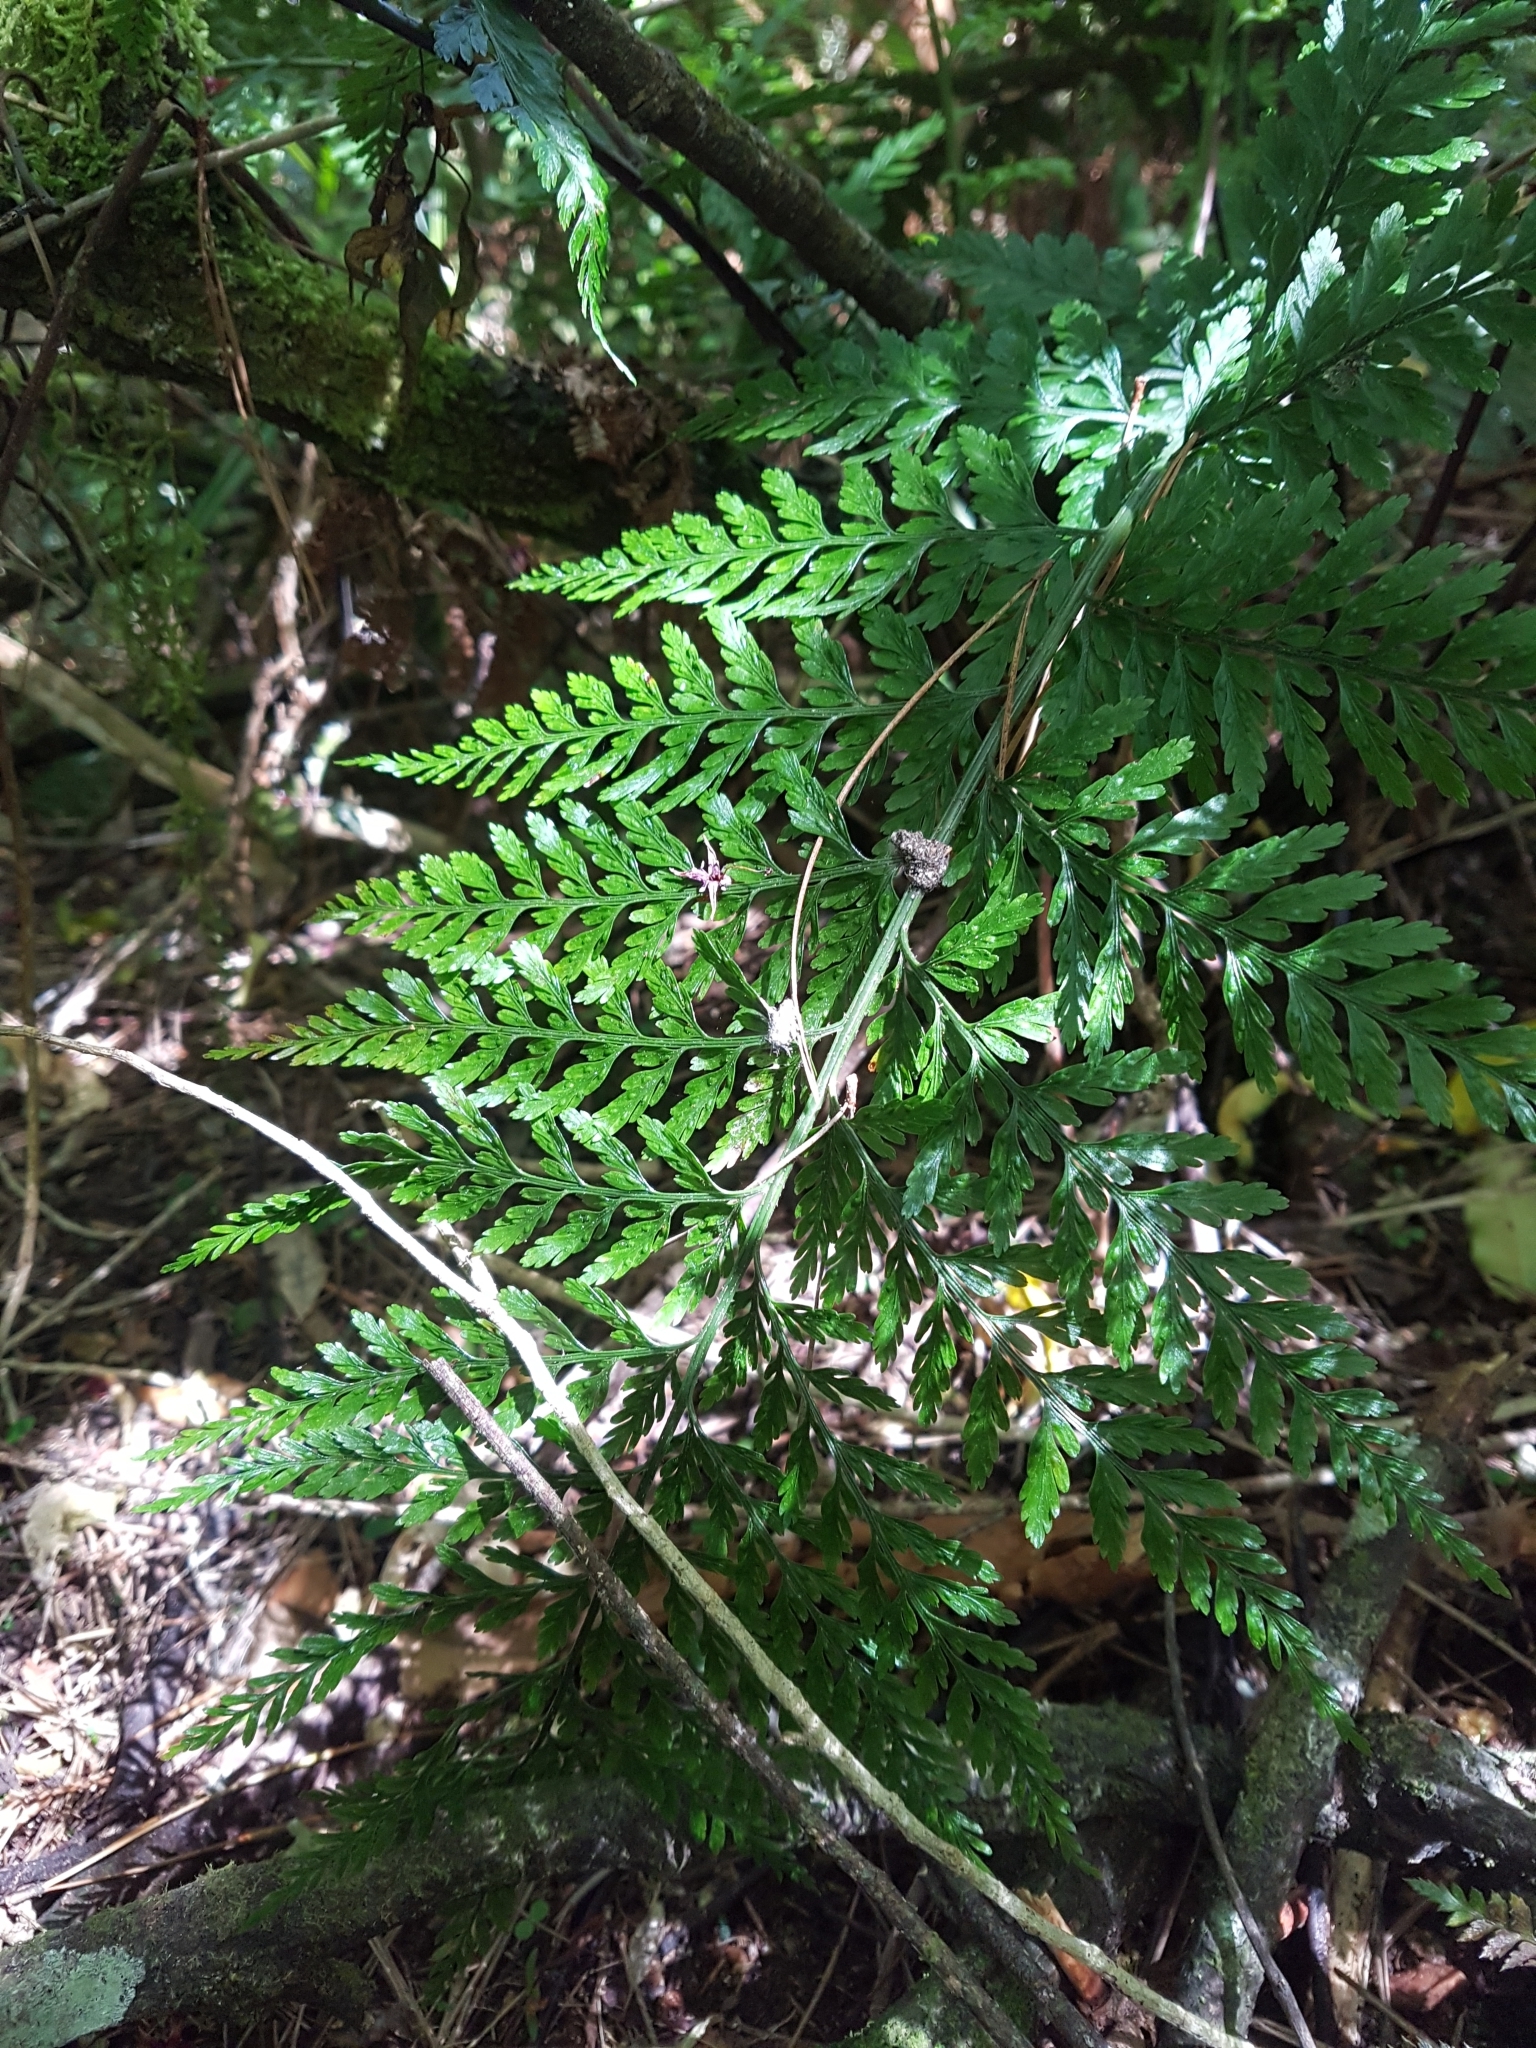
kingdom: Plantae
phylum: Tracheophyta
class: Polypodiopsida
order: Polypodiales
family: Aspleniaceae
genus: Asplenium
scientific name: Asplenium
